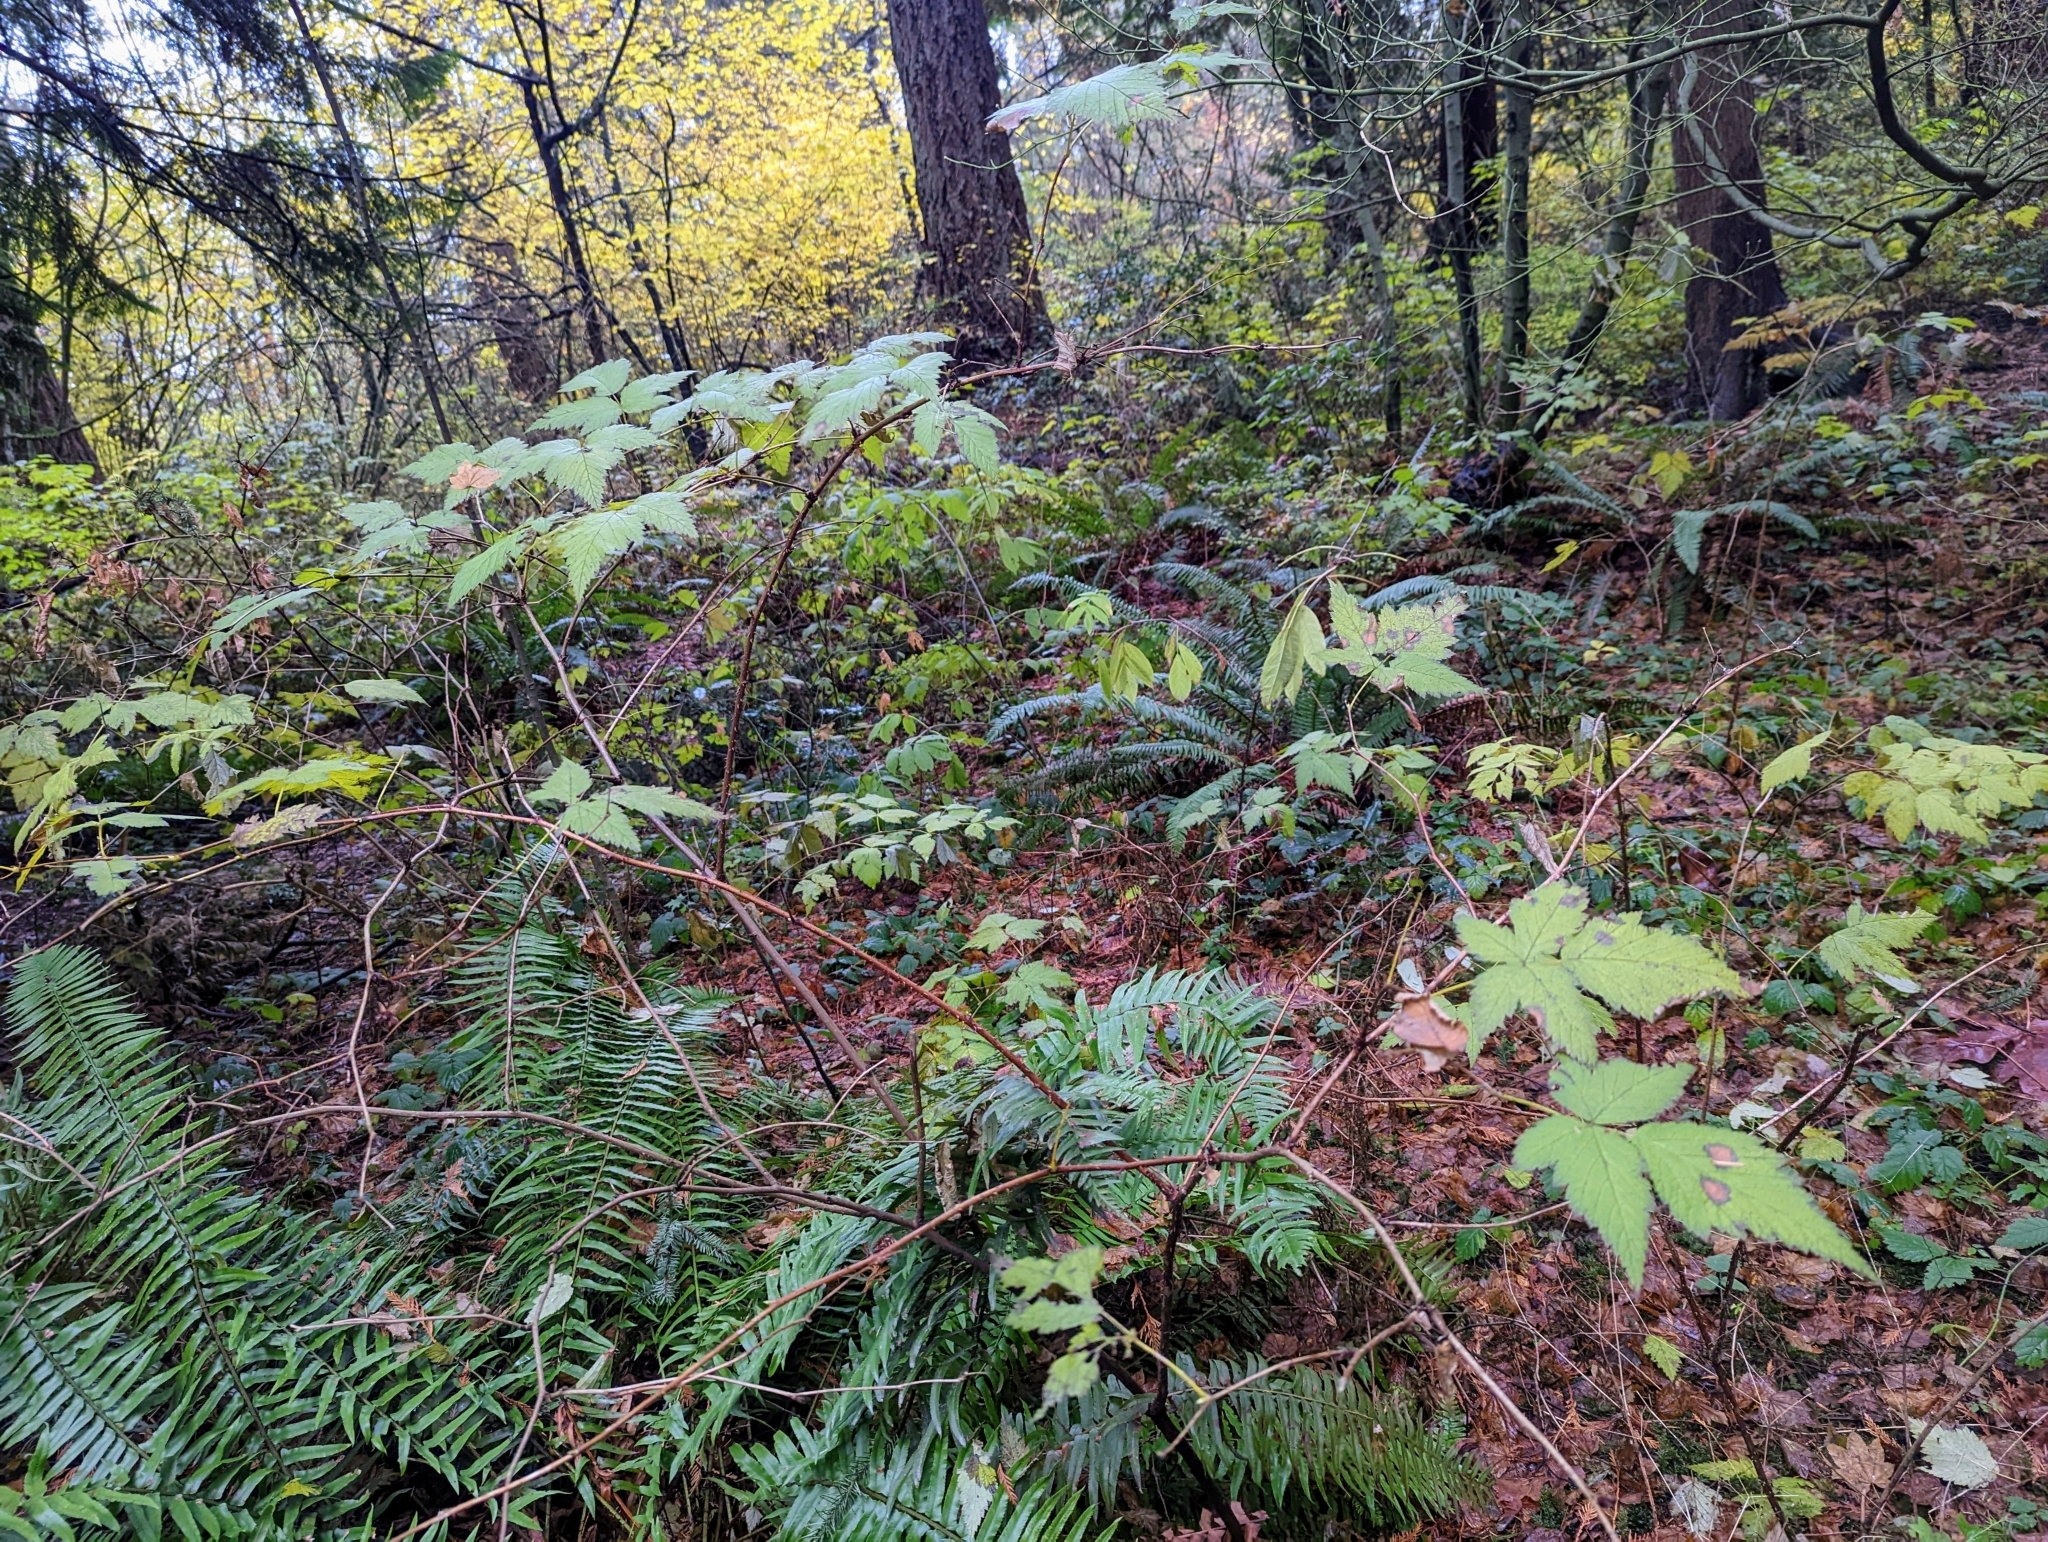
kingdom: Plantae
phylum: Tracheophyta
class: Magnoliopsida
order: Rosales
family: Rosaceae
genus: Rubus
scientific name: Rubus spectabilis
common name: Salmonberry
